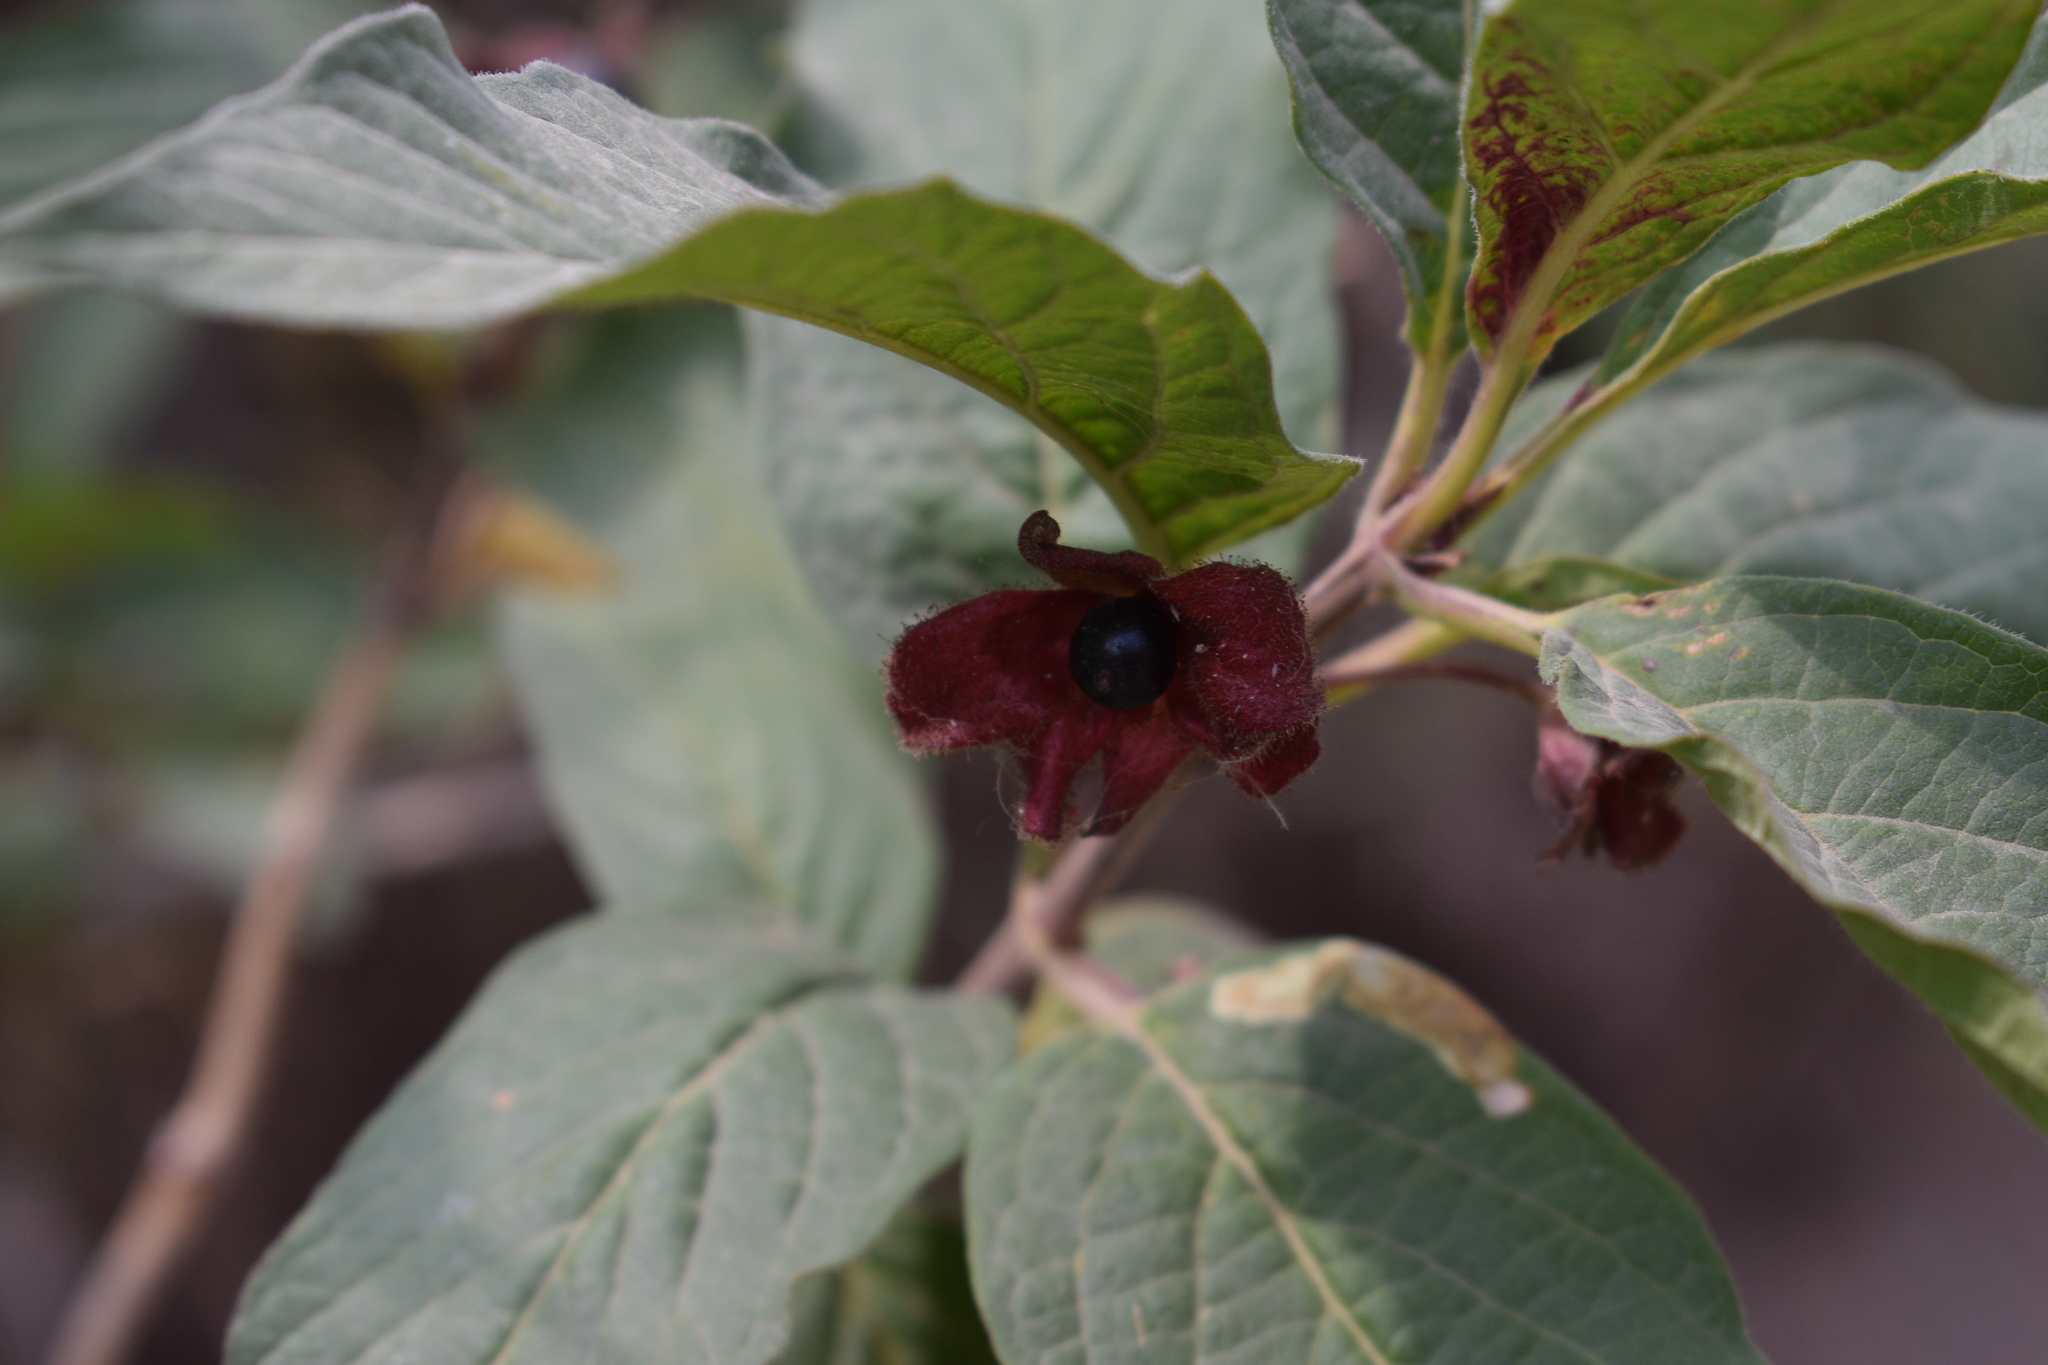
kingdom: Plantae
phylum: Tracheophyta
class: Magnoliopsida
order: Dipsacales
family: Caprifoliaceae
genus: Lonicera
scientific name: Lonicera involucrata
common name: Californian honeysuckle
